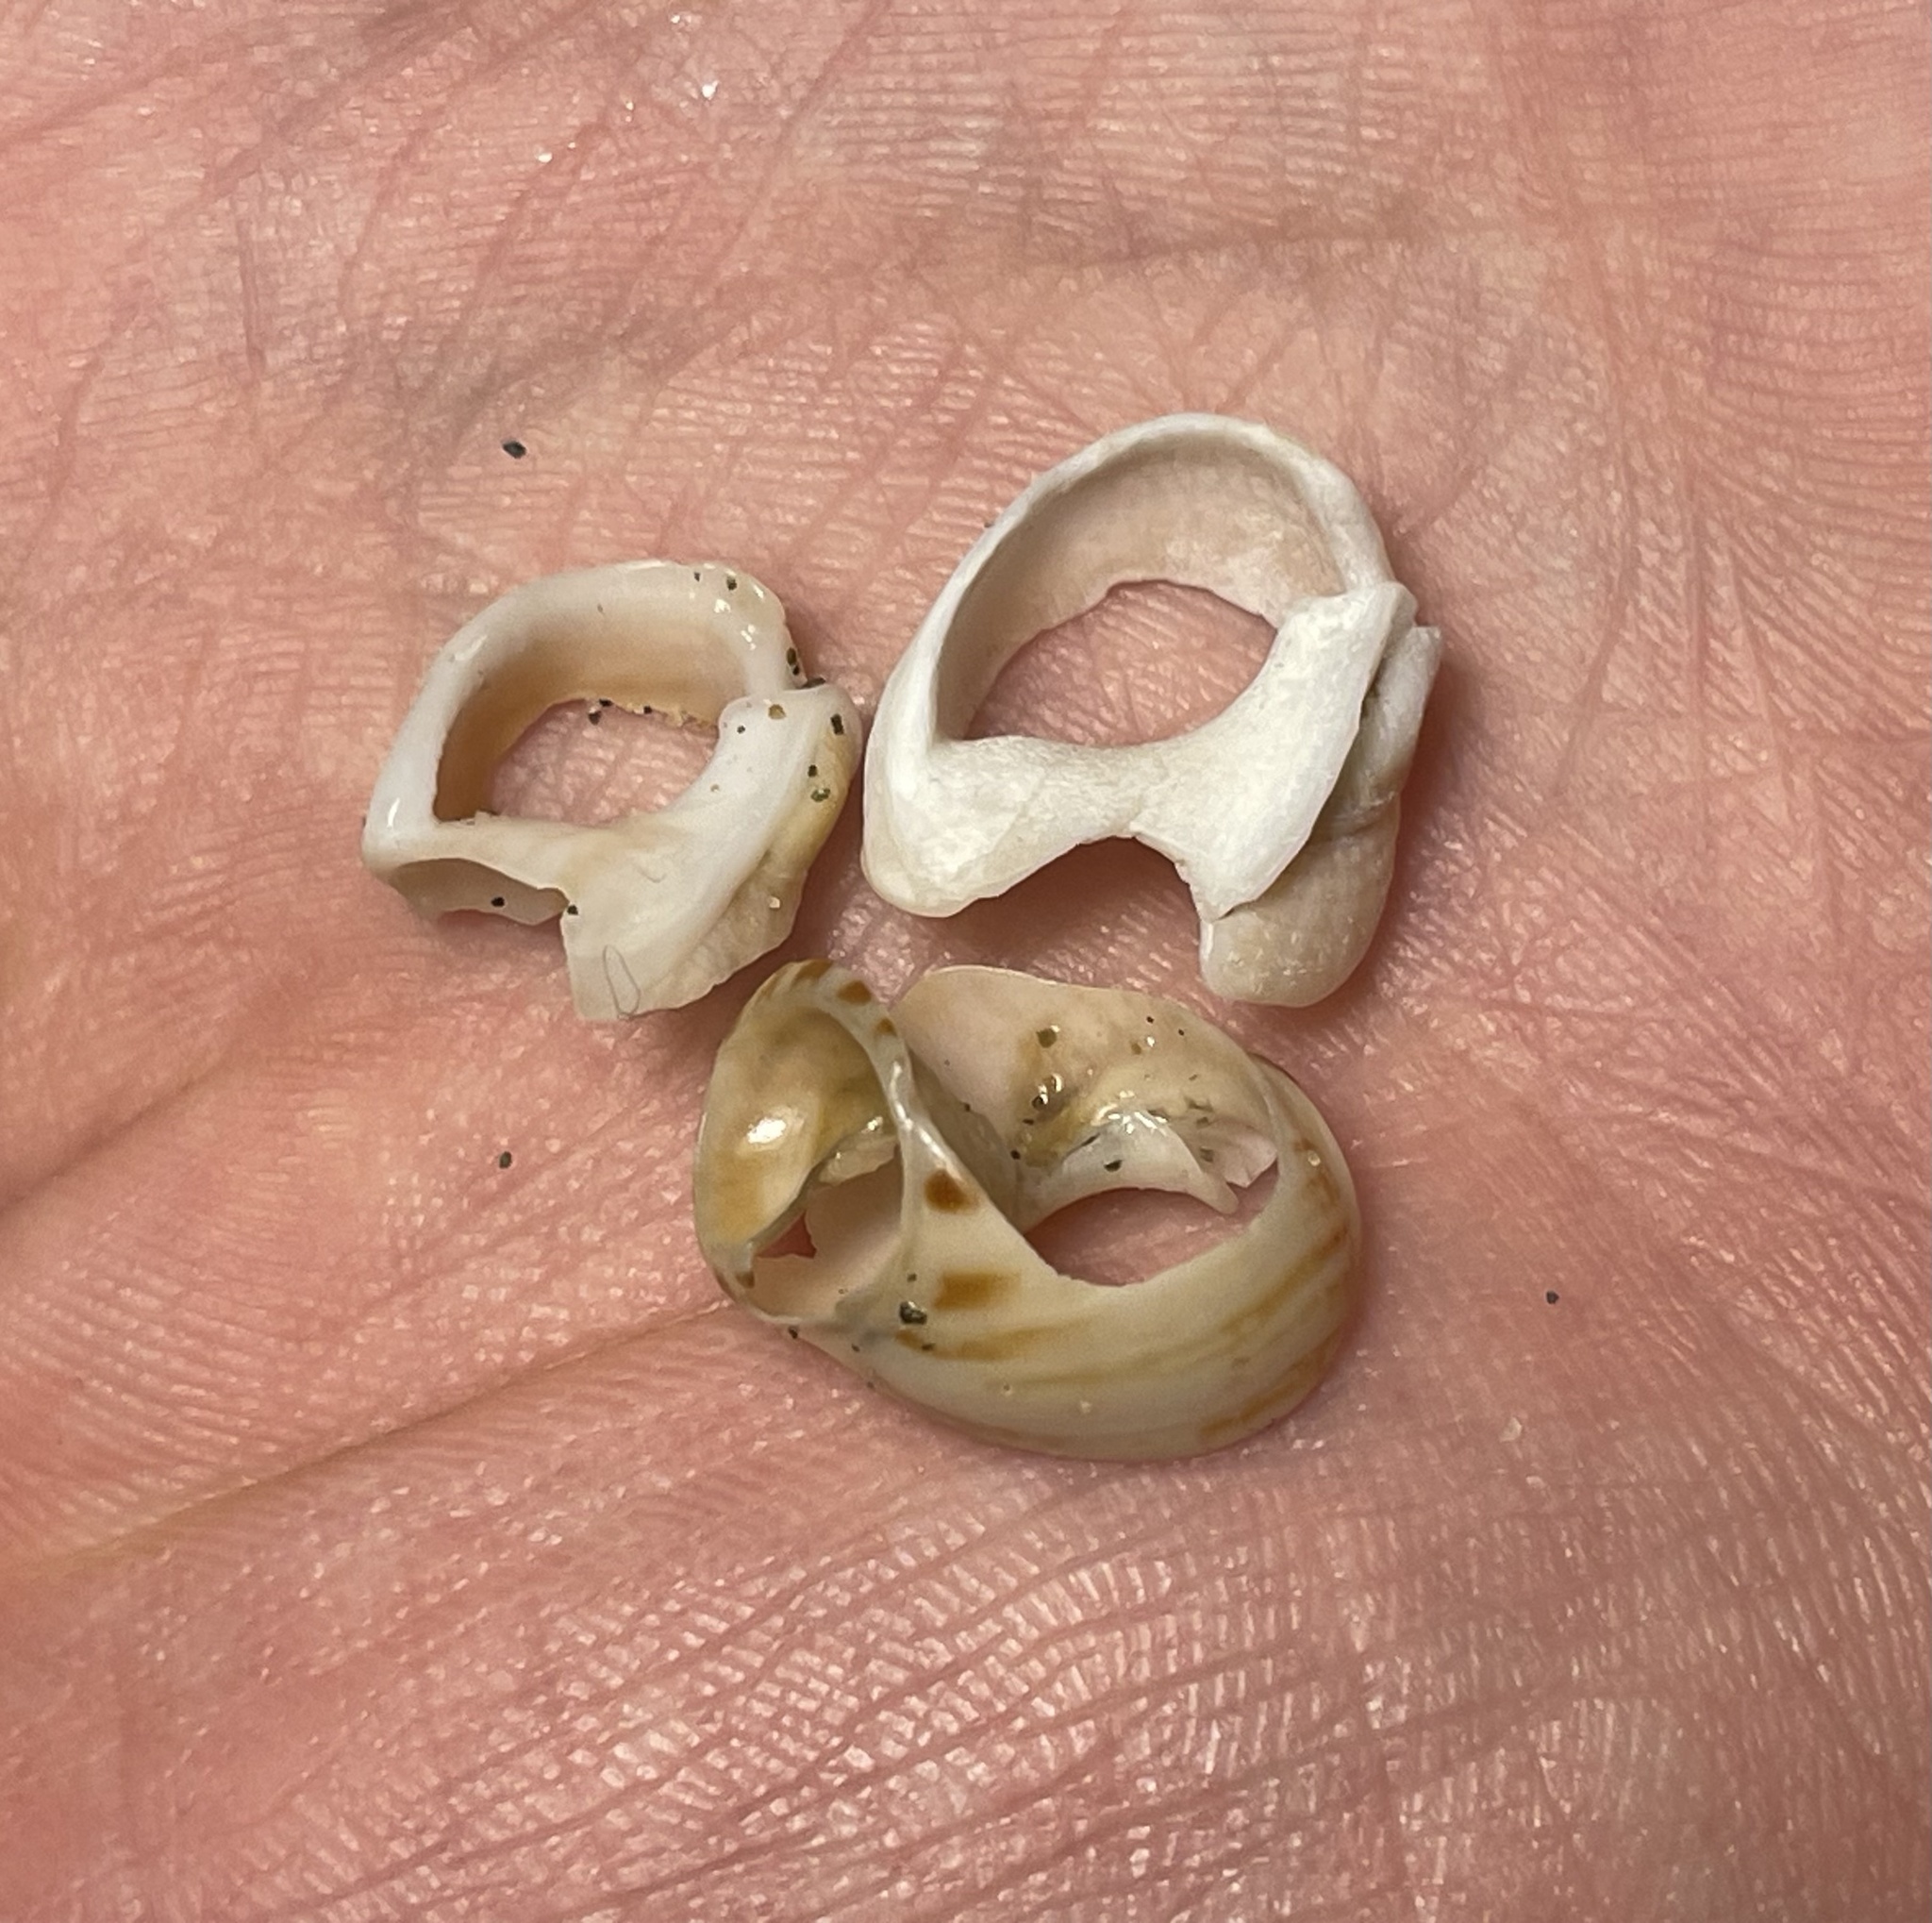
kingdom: Animalia
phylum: Mollusca
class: Gastropoda
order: Neogastropoda
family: Nassariidae
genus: Tritia
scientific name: Tritia mutabilis
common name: Mutable nassa
